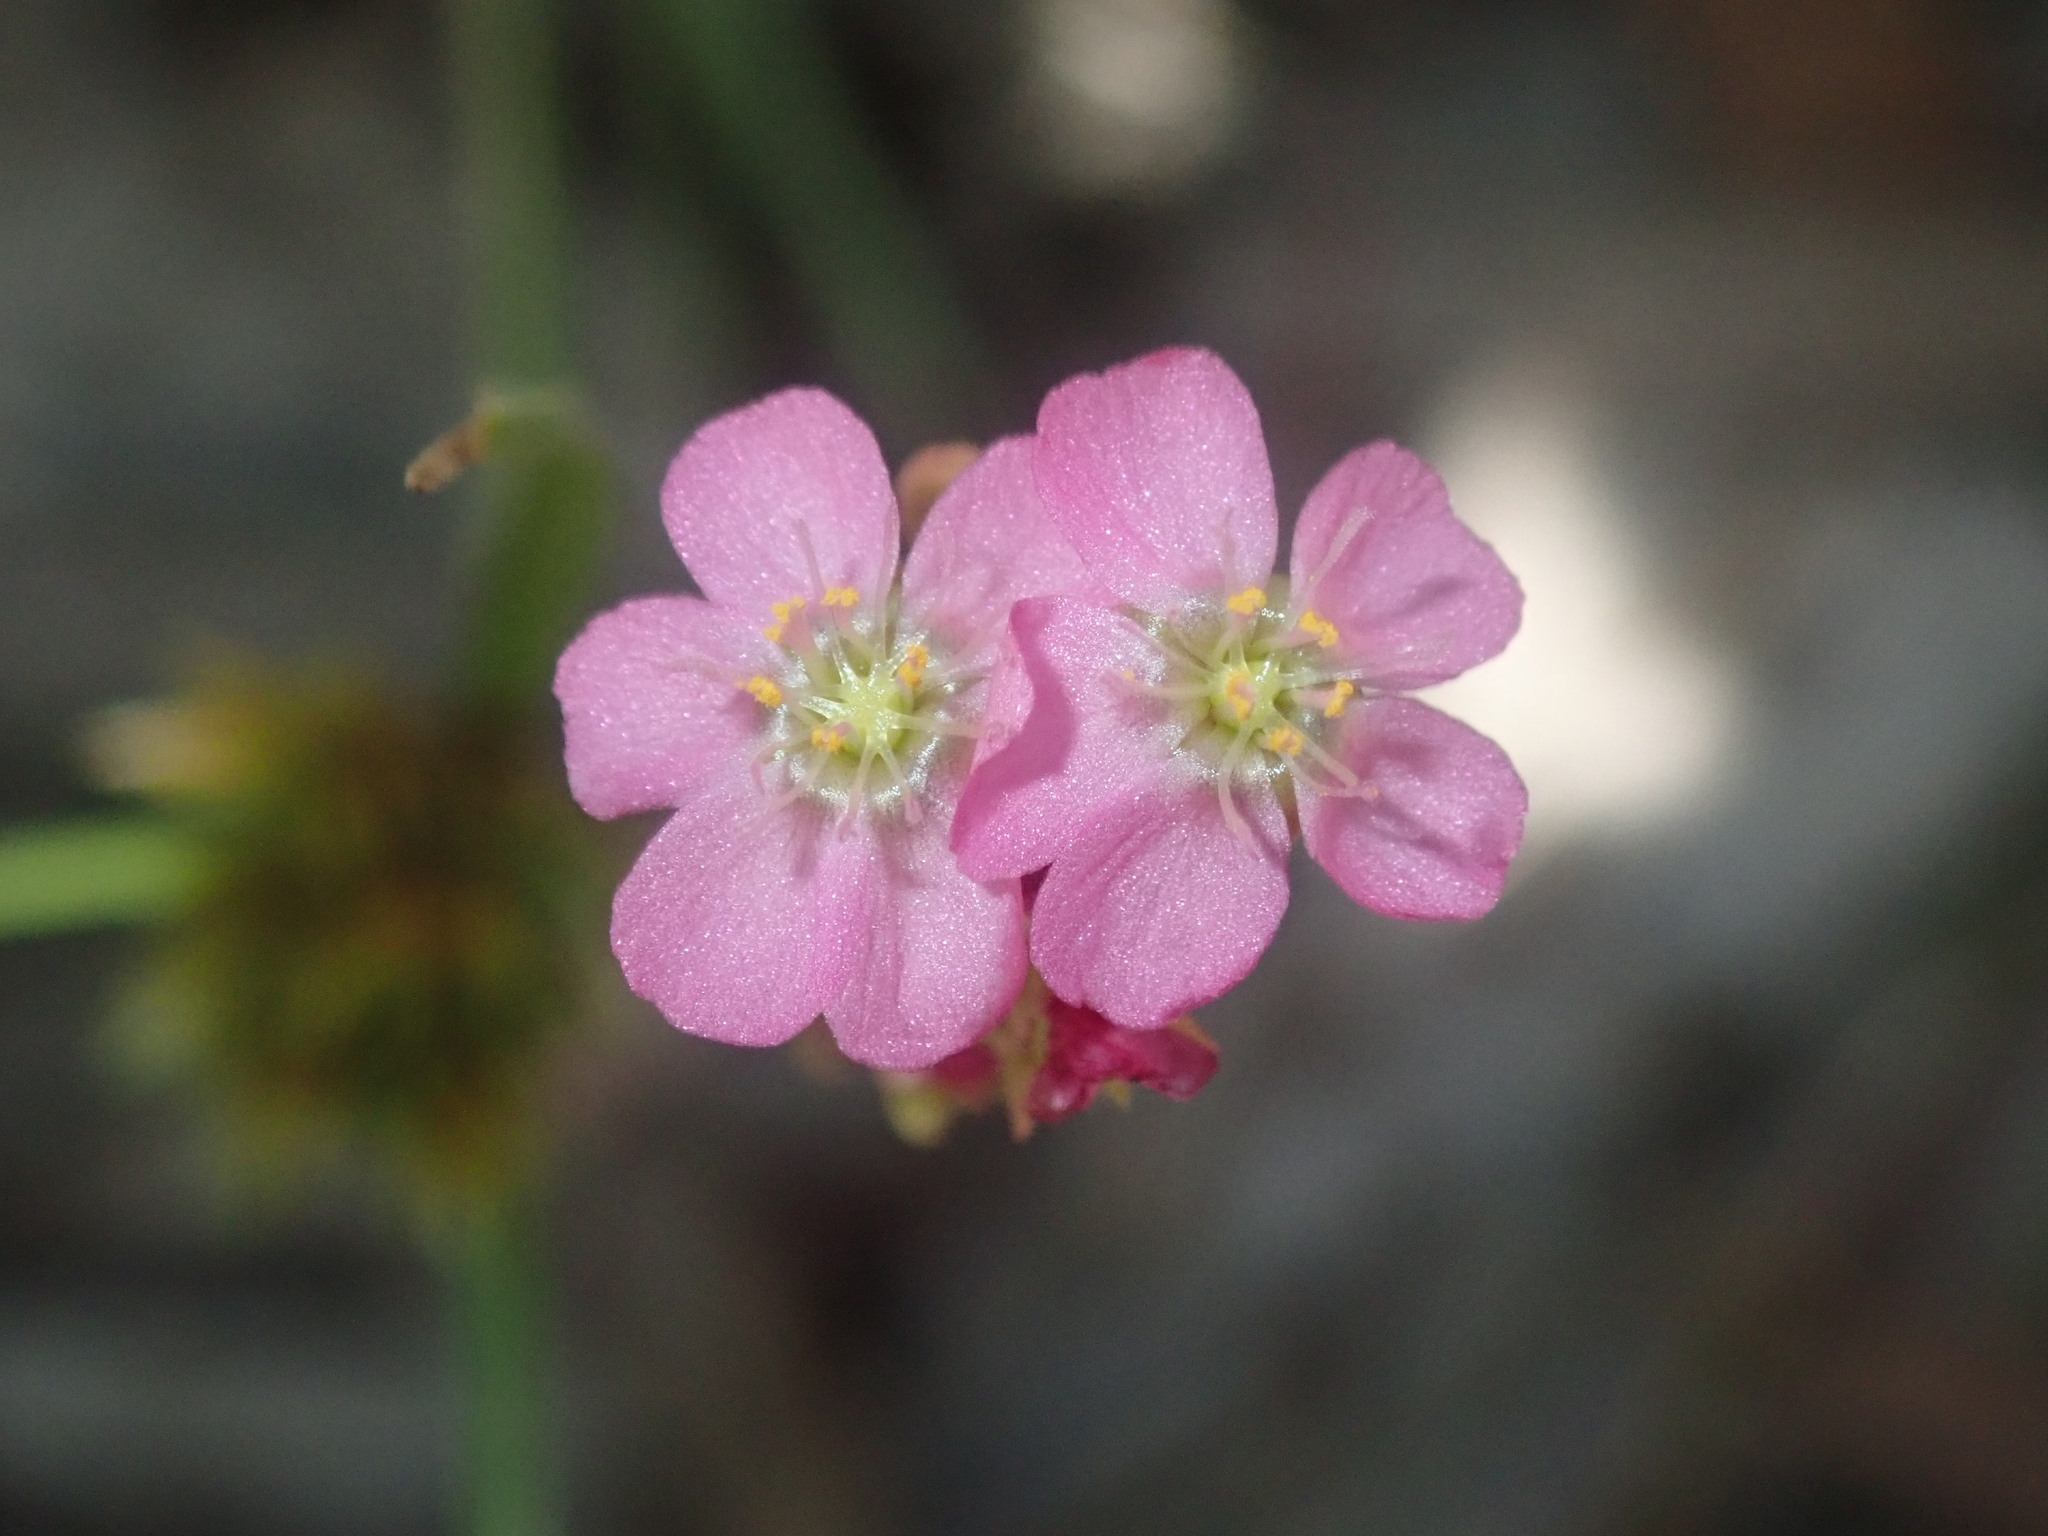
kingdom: Plantae
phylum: Tracheophyta
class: Magnoliopsida
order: Caryophyllales
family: Droseraceae
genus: Drosera
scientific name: Drosera spatulata
